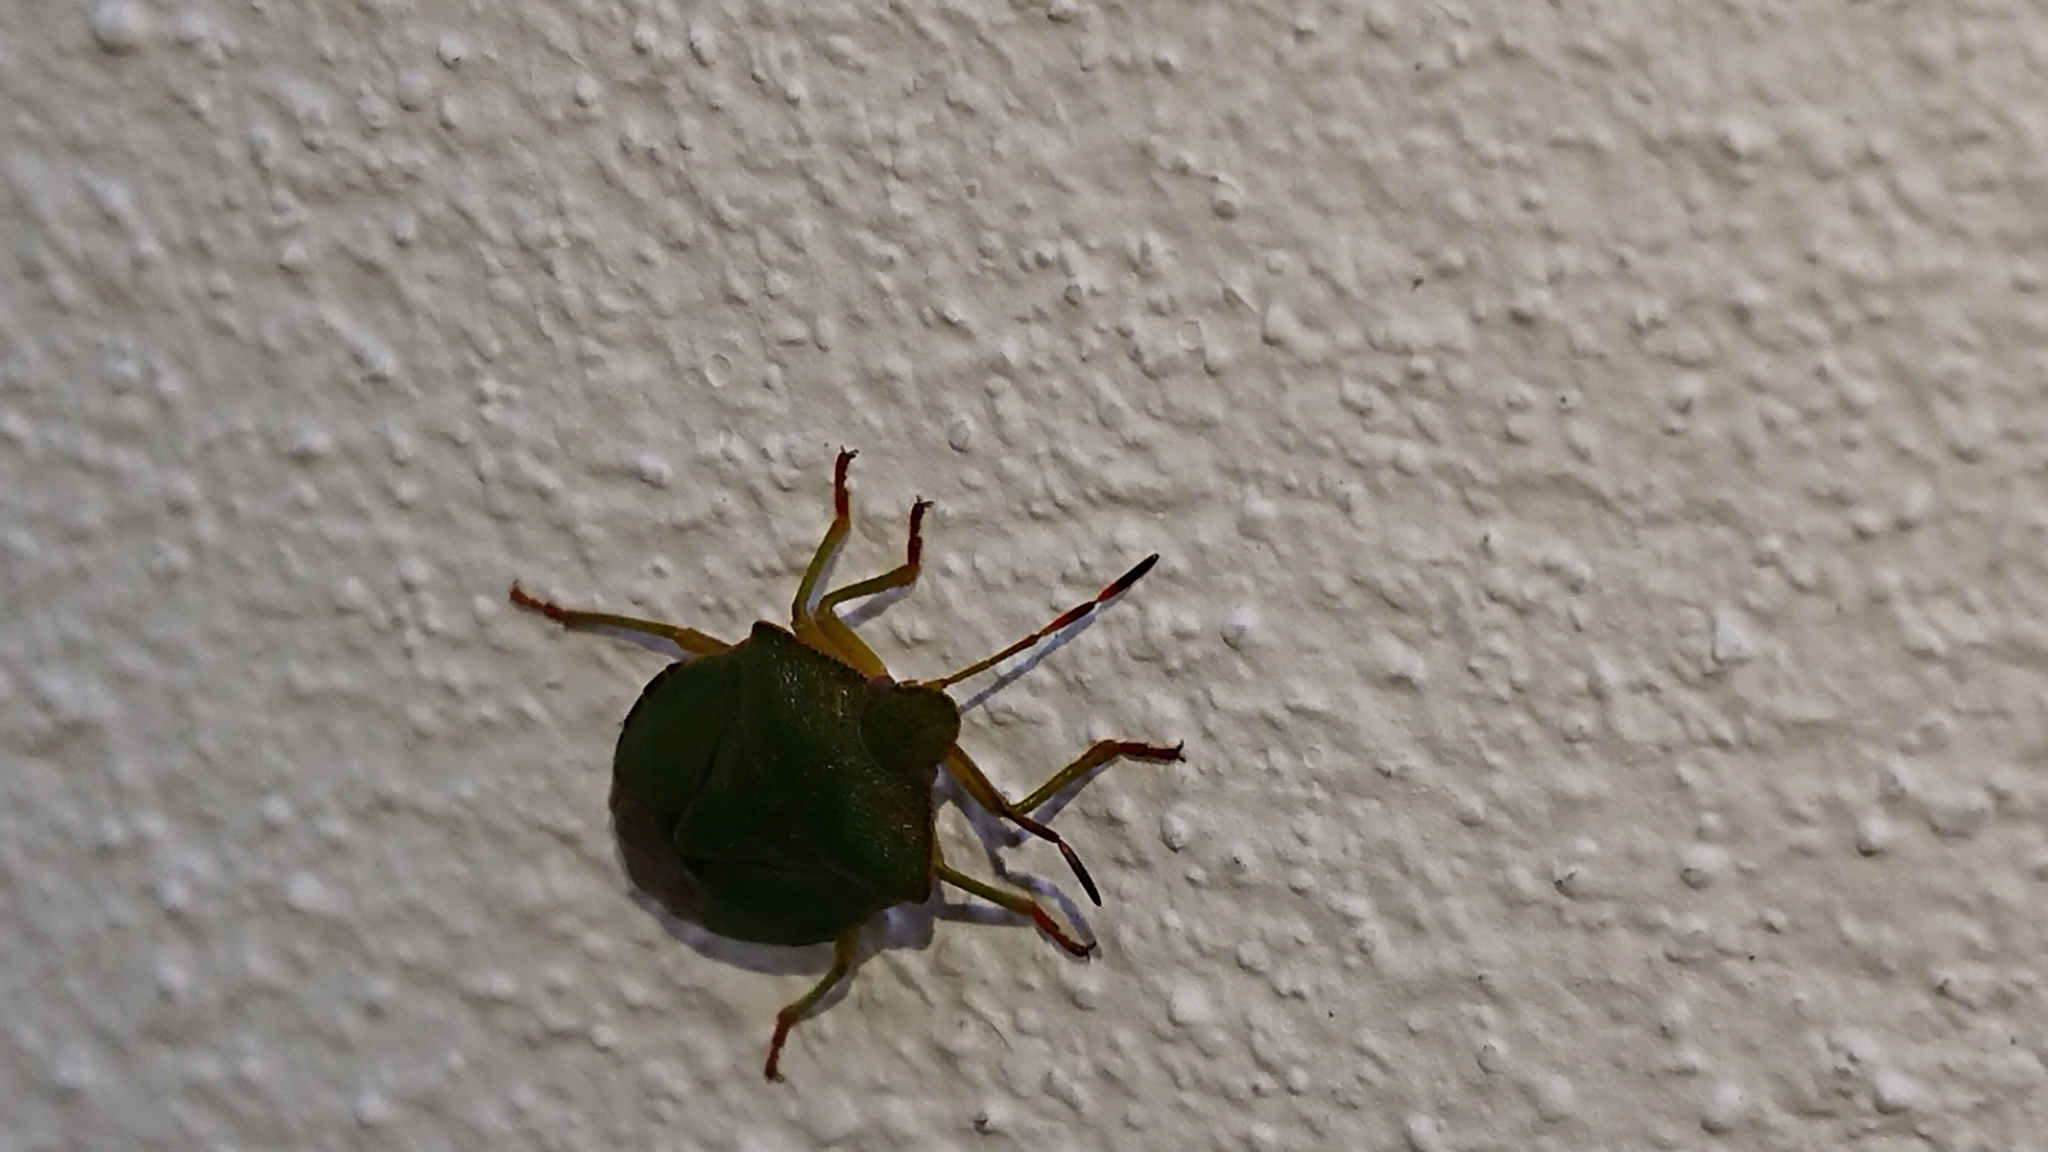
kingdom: Animalia
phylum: Arthropoda
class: Insecta
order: Hemiptera
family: Pentatomidae
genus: Palomena
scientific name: Palomena prasina
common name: Green shieldbug
